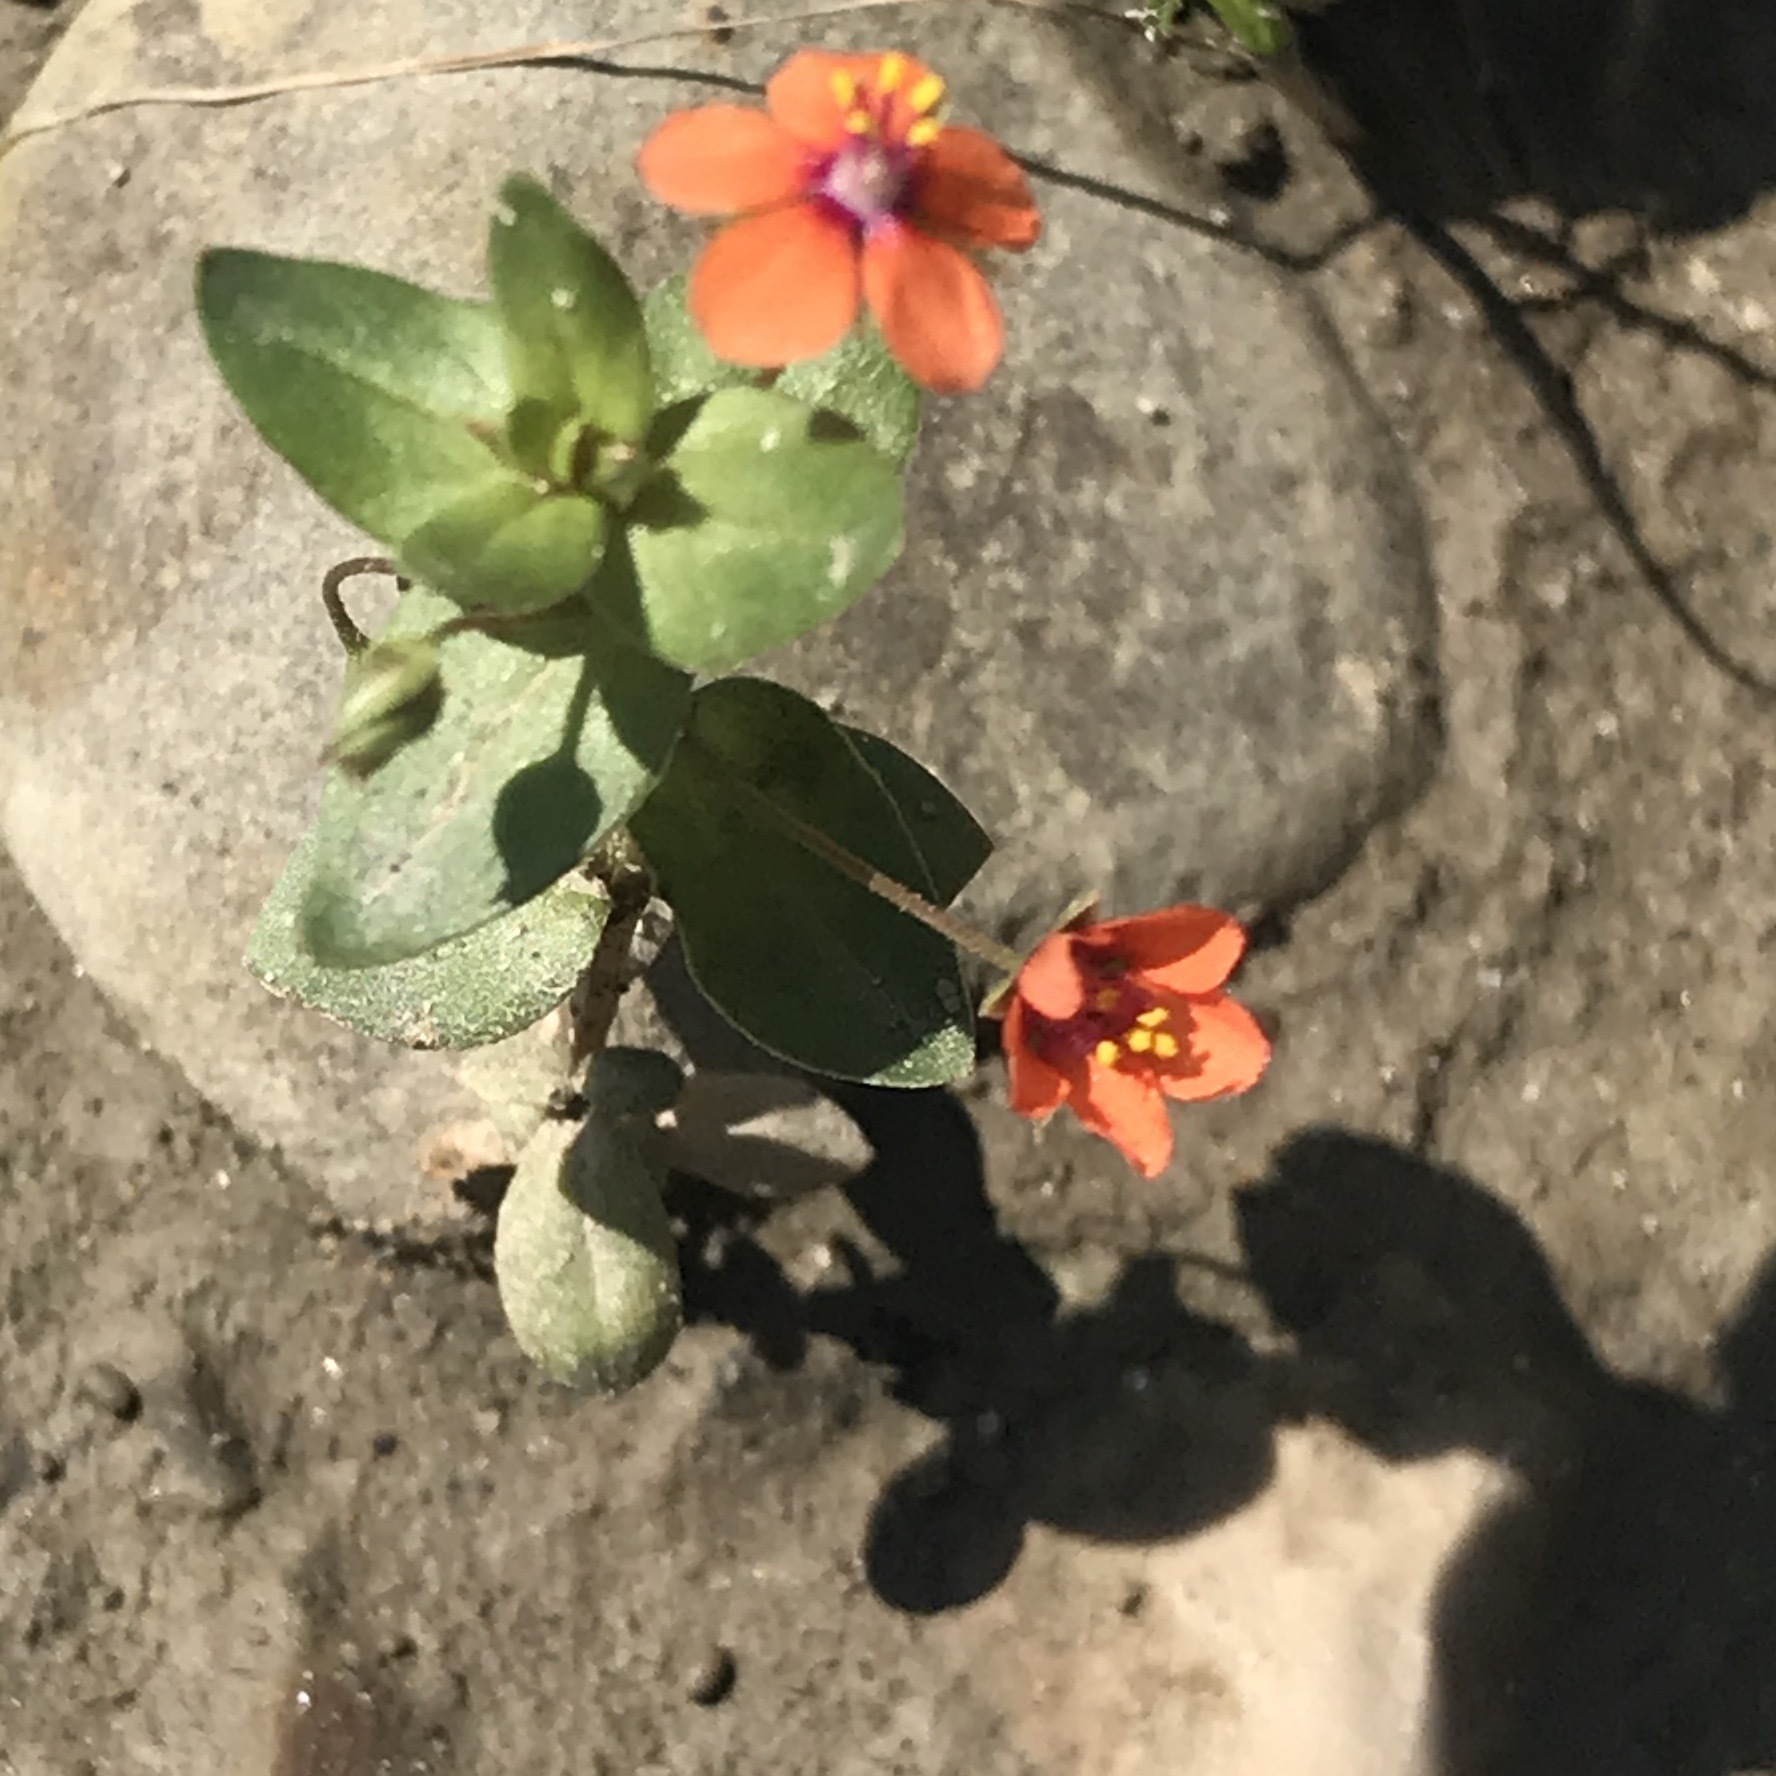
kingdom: Plantae
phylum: Tracheophyta
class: Magnoliopsida
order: Ericales
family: Primulaceae
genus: Lysimachia
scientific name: Lysimachia arvensis
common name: Scarlet pimpernel
